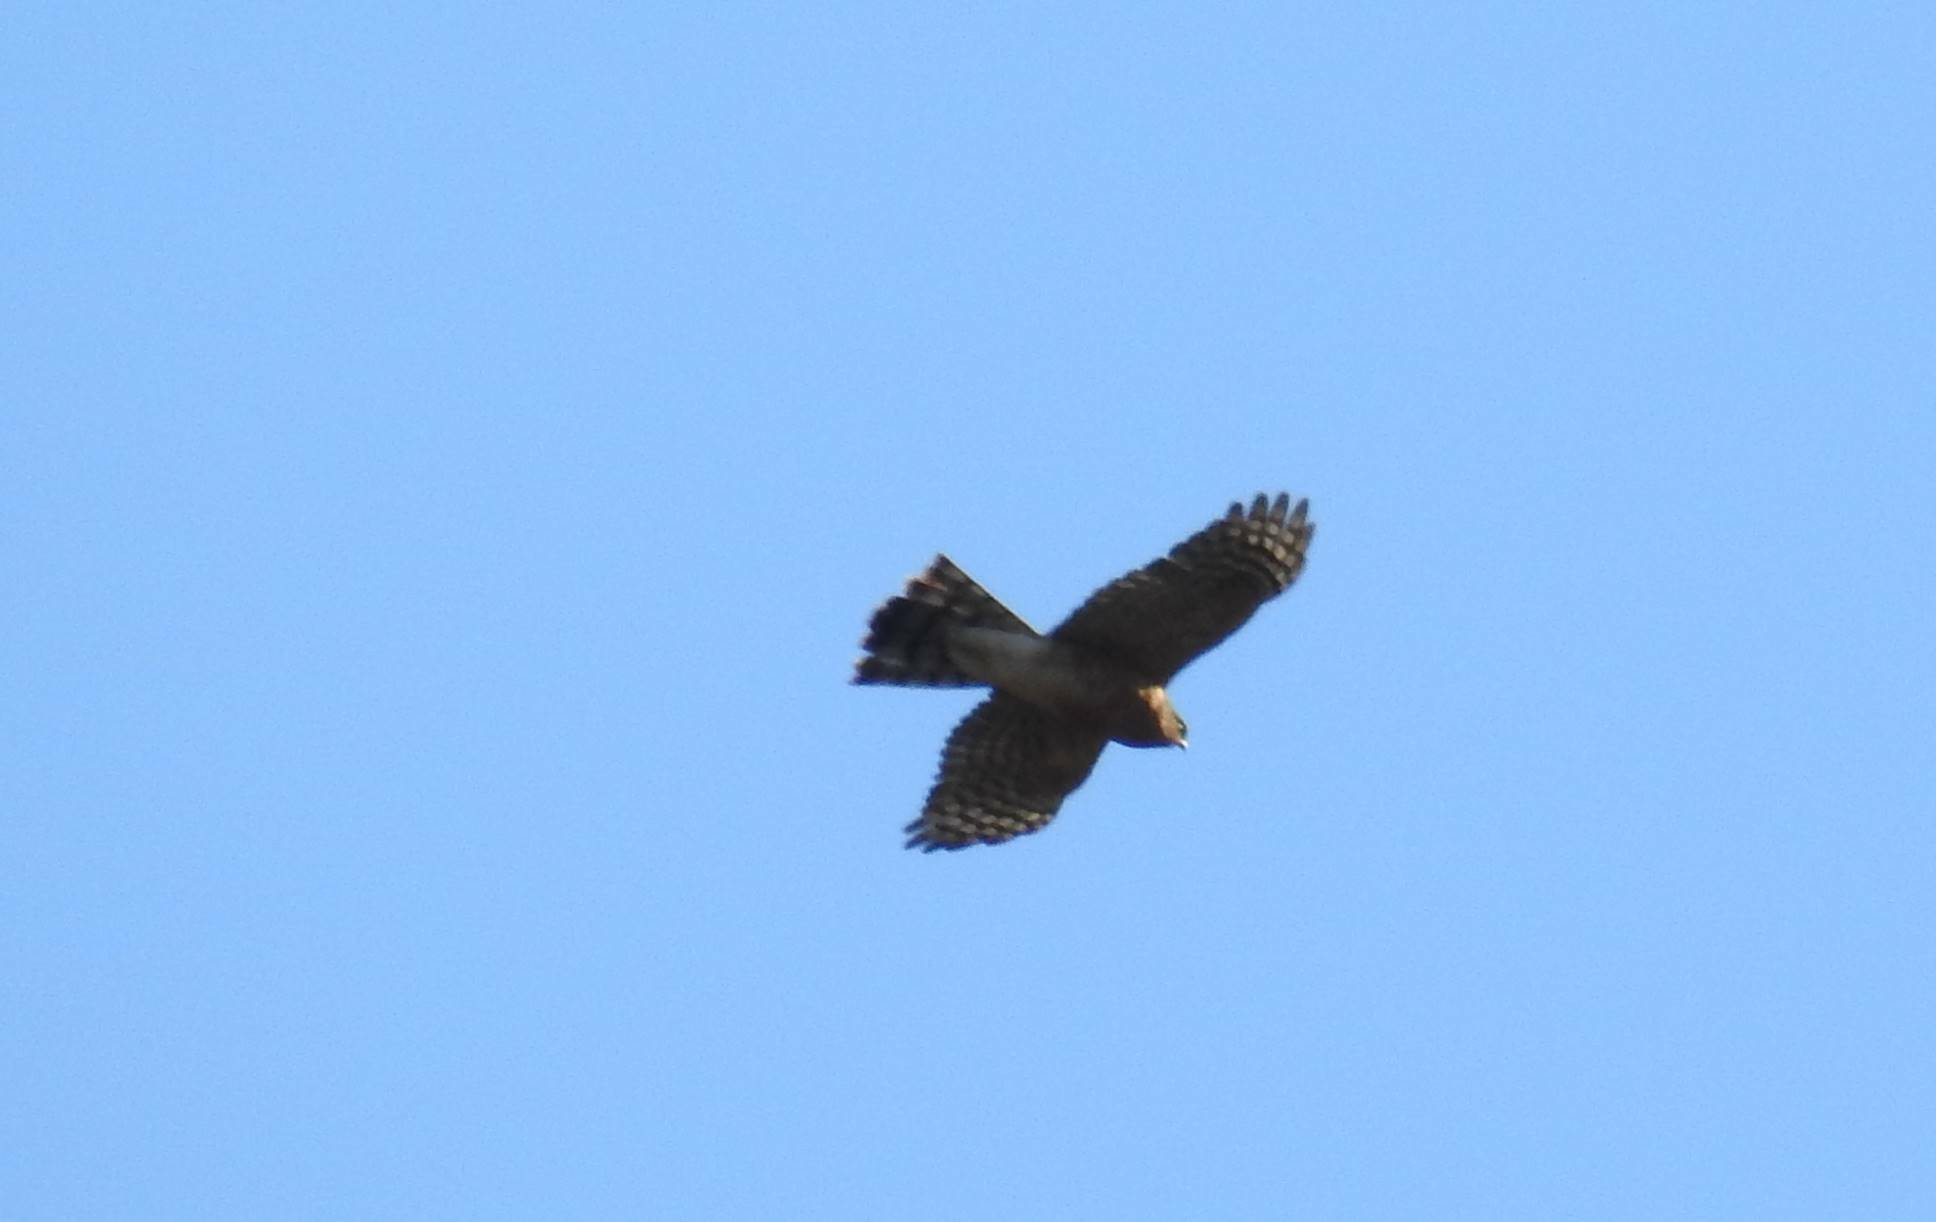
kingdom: Animalia
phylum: Chordata
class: Aves
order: Accipitriformes
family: Accipitridae
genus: Accipiter
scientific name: Accipiter nisus
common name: Eurasian sparrowhawk
